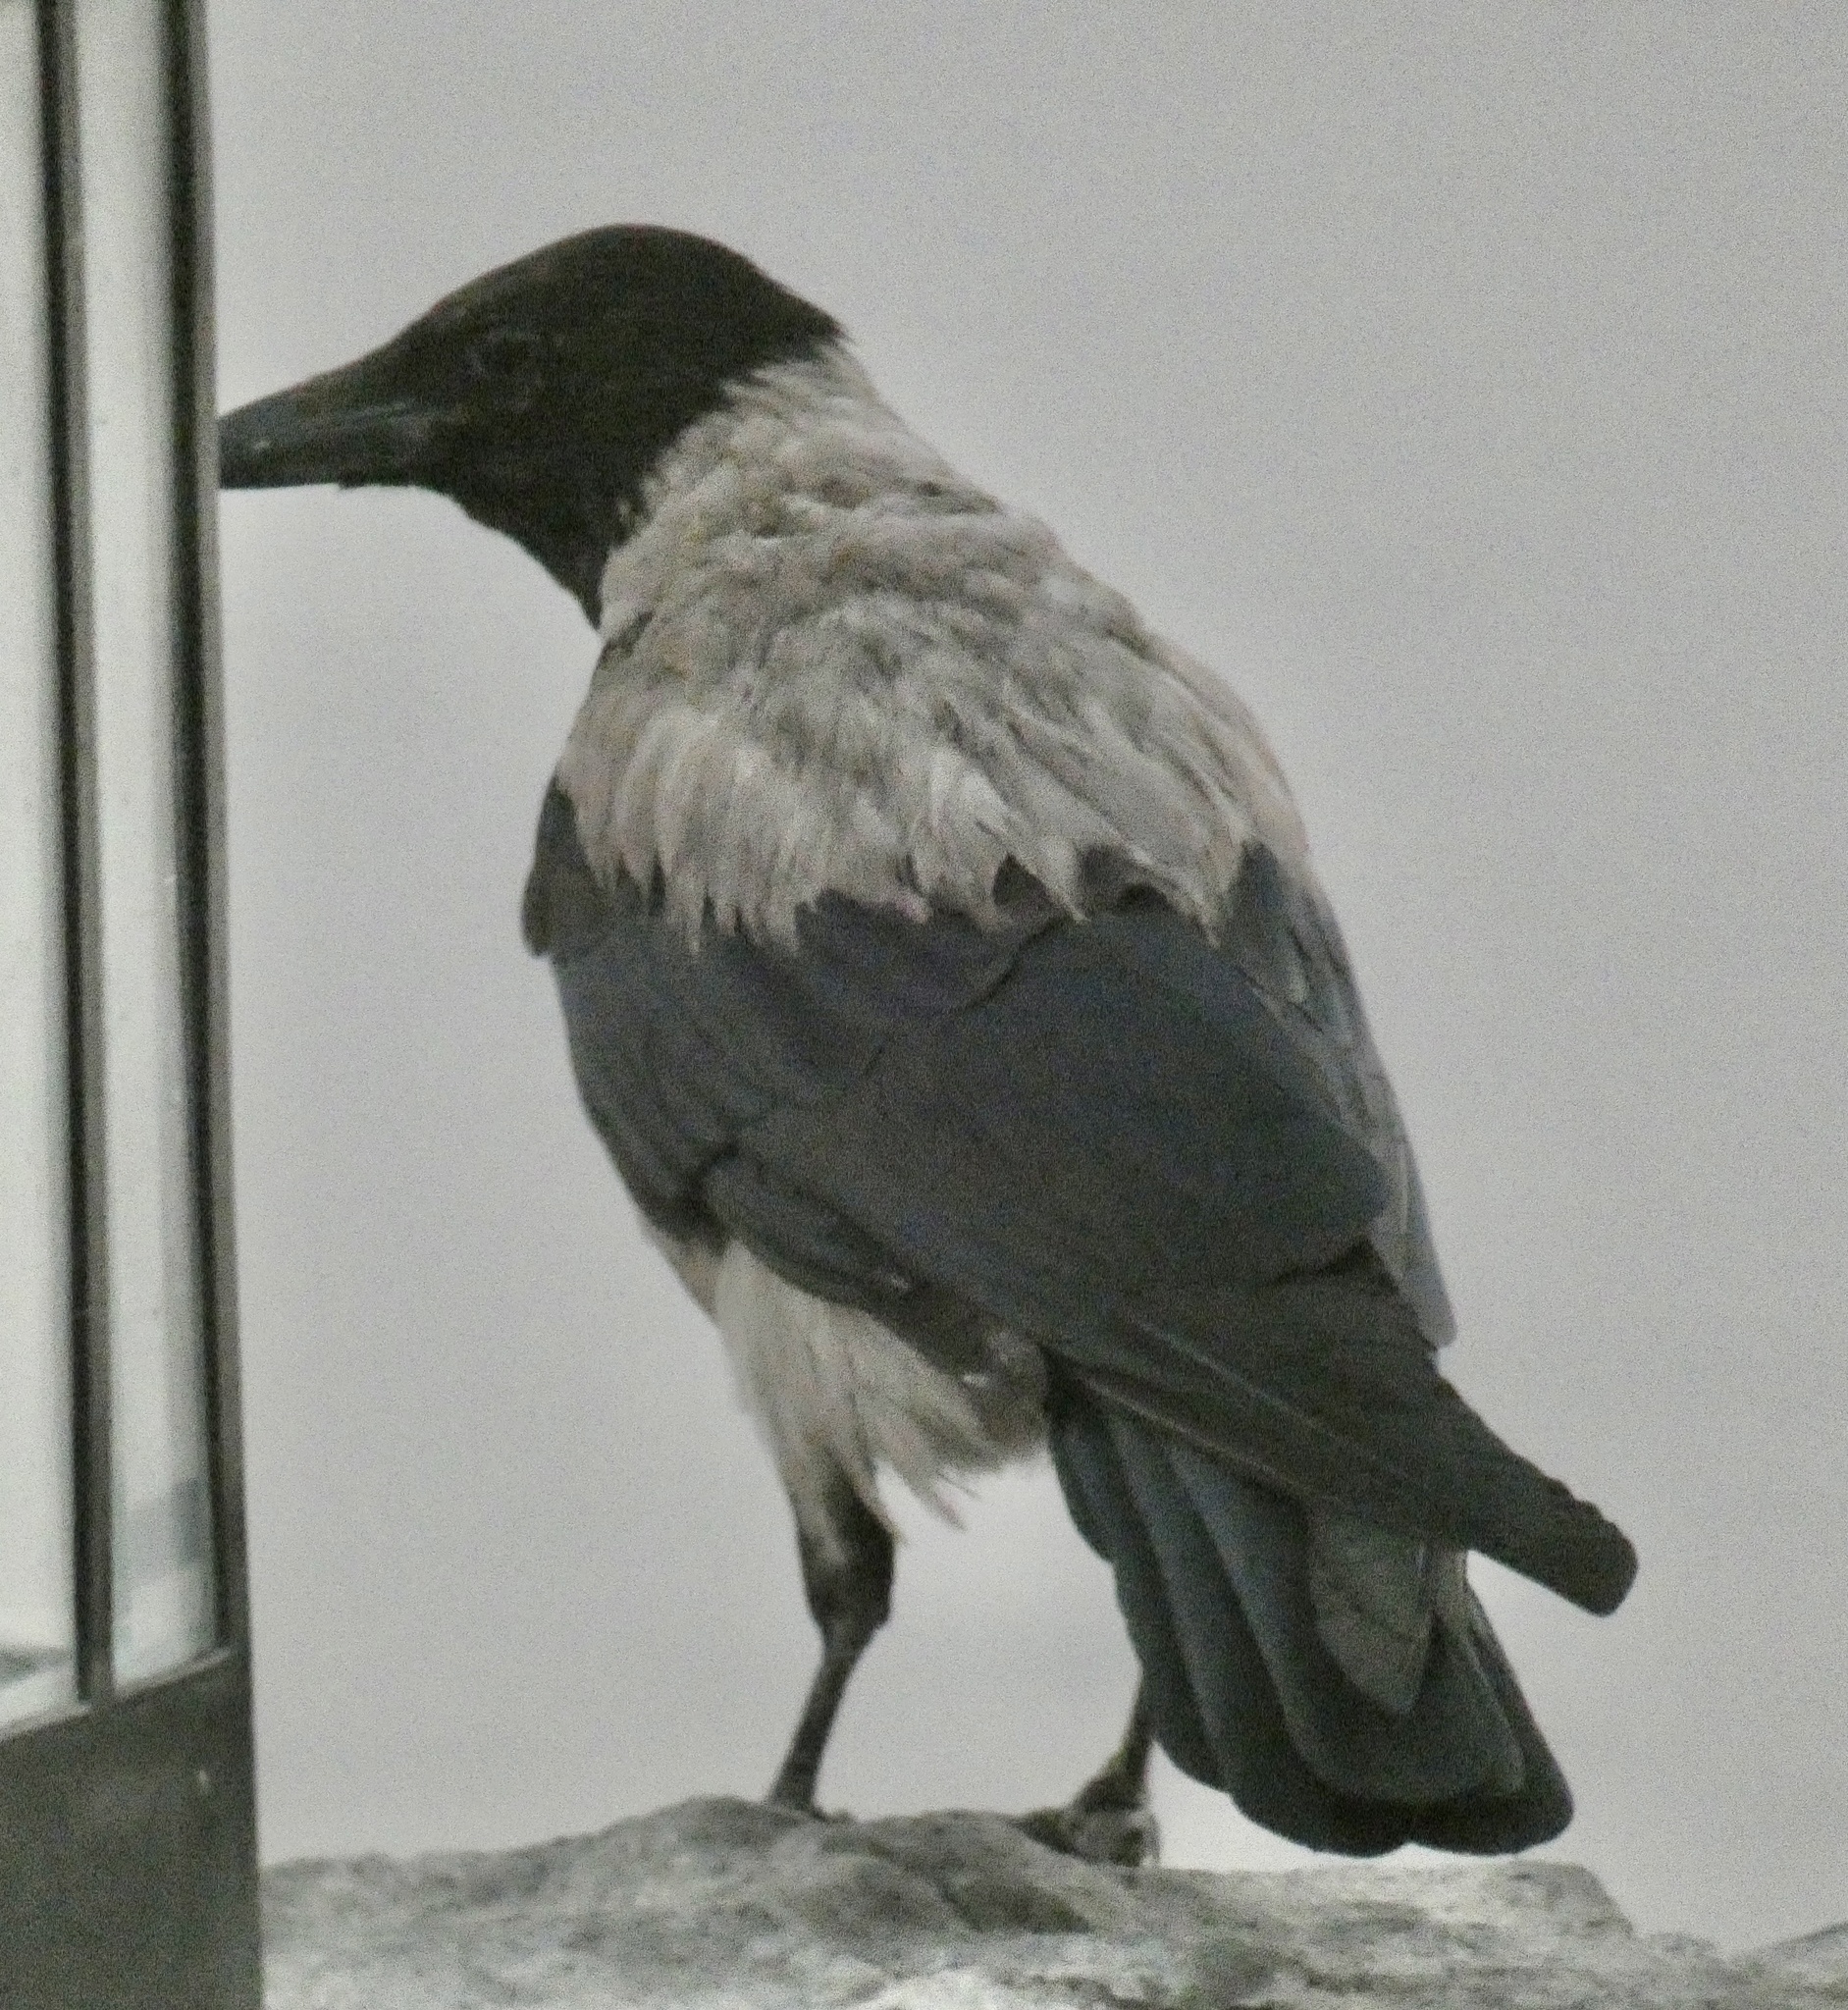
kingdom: Animalia
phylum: Chordata
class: Aves
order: Passeriformes
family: Corvidae
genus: Corvus
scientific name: Corvus cornix
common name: Hooded crow
